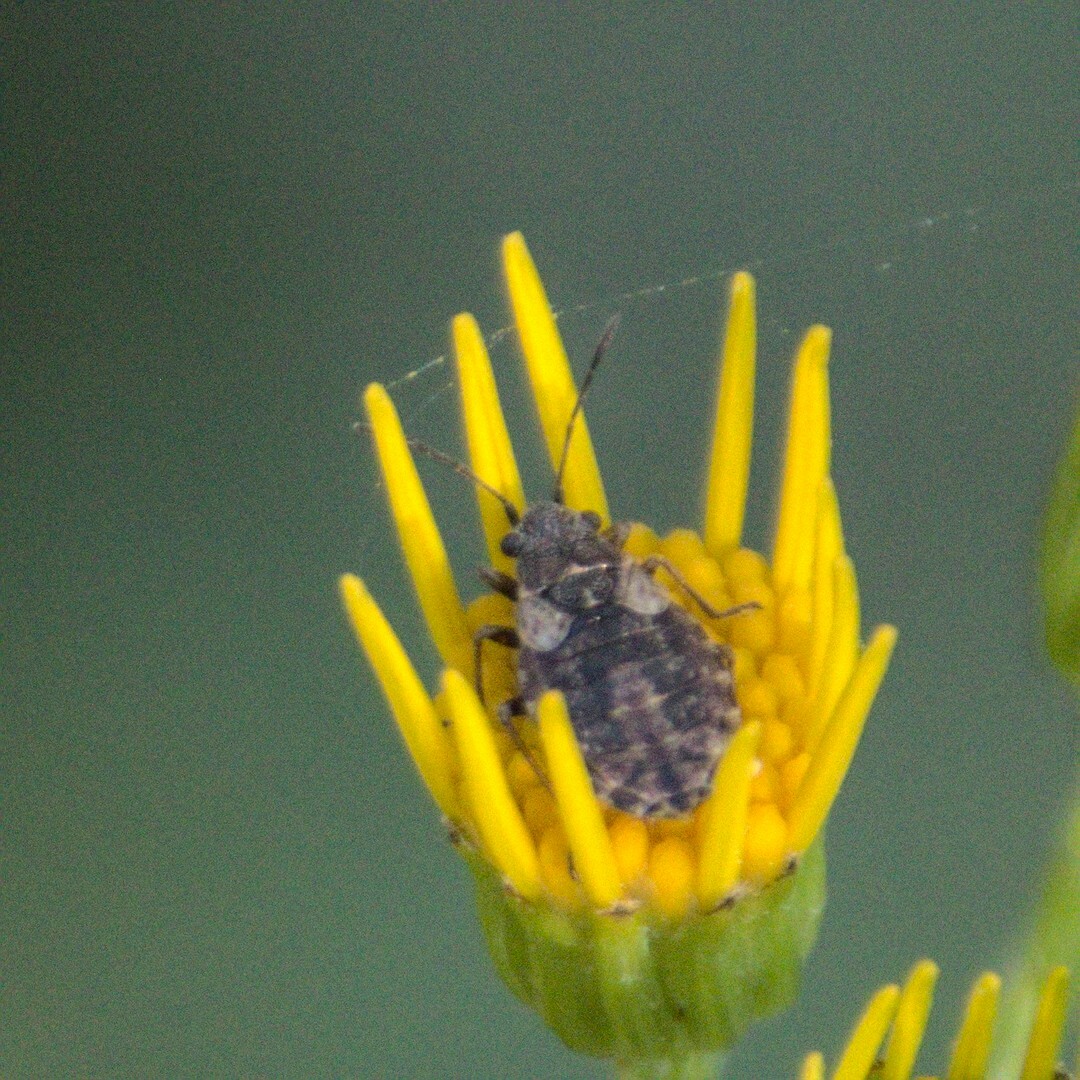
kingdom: Animalia
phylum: Arthropoda
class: Insecta
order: Hemiptera
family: Lygaeidae
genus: Nithecus
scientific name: Nithecus jacobaeae
